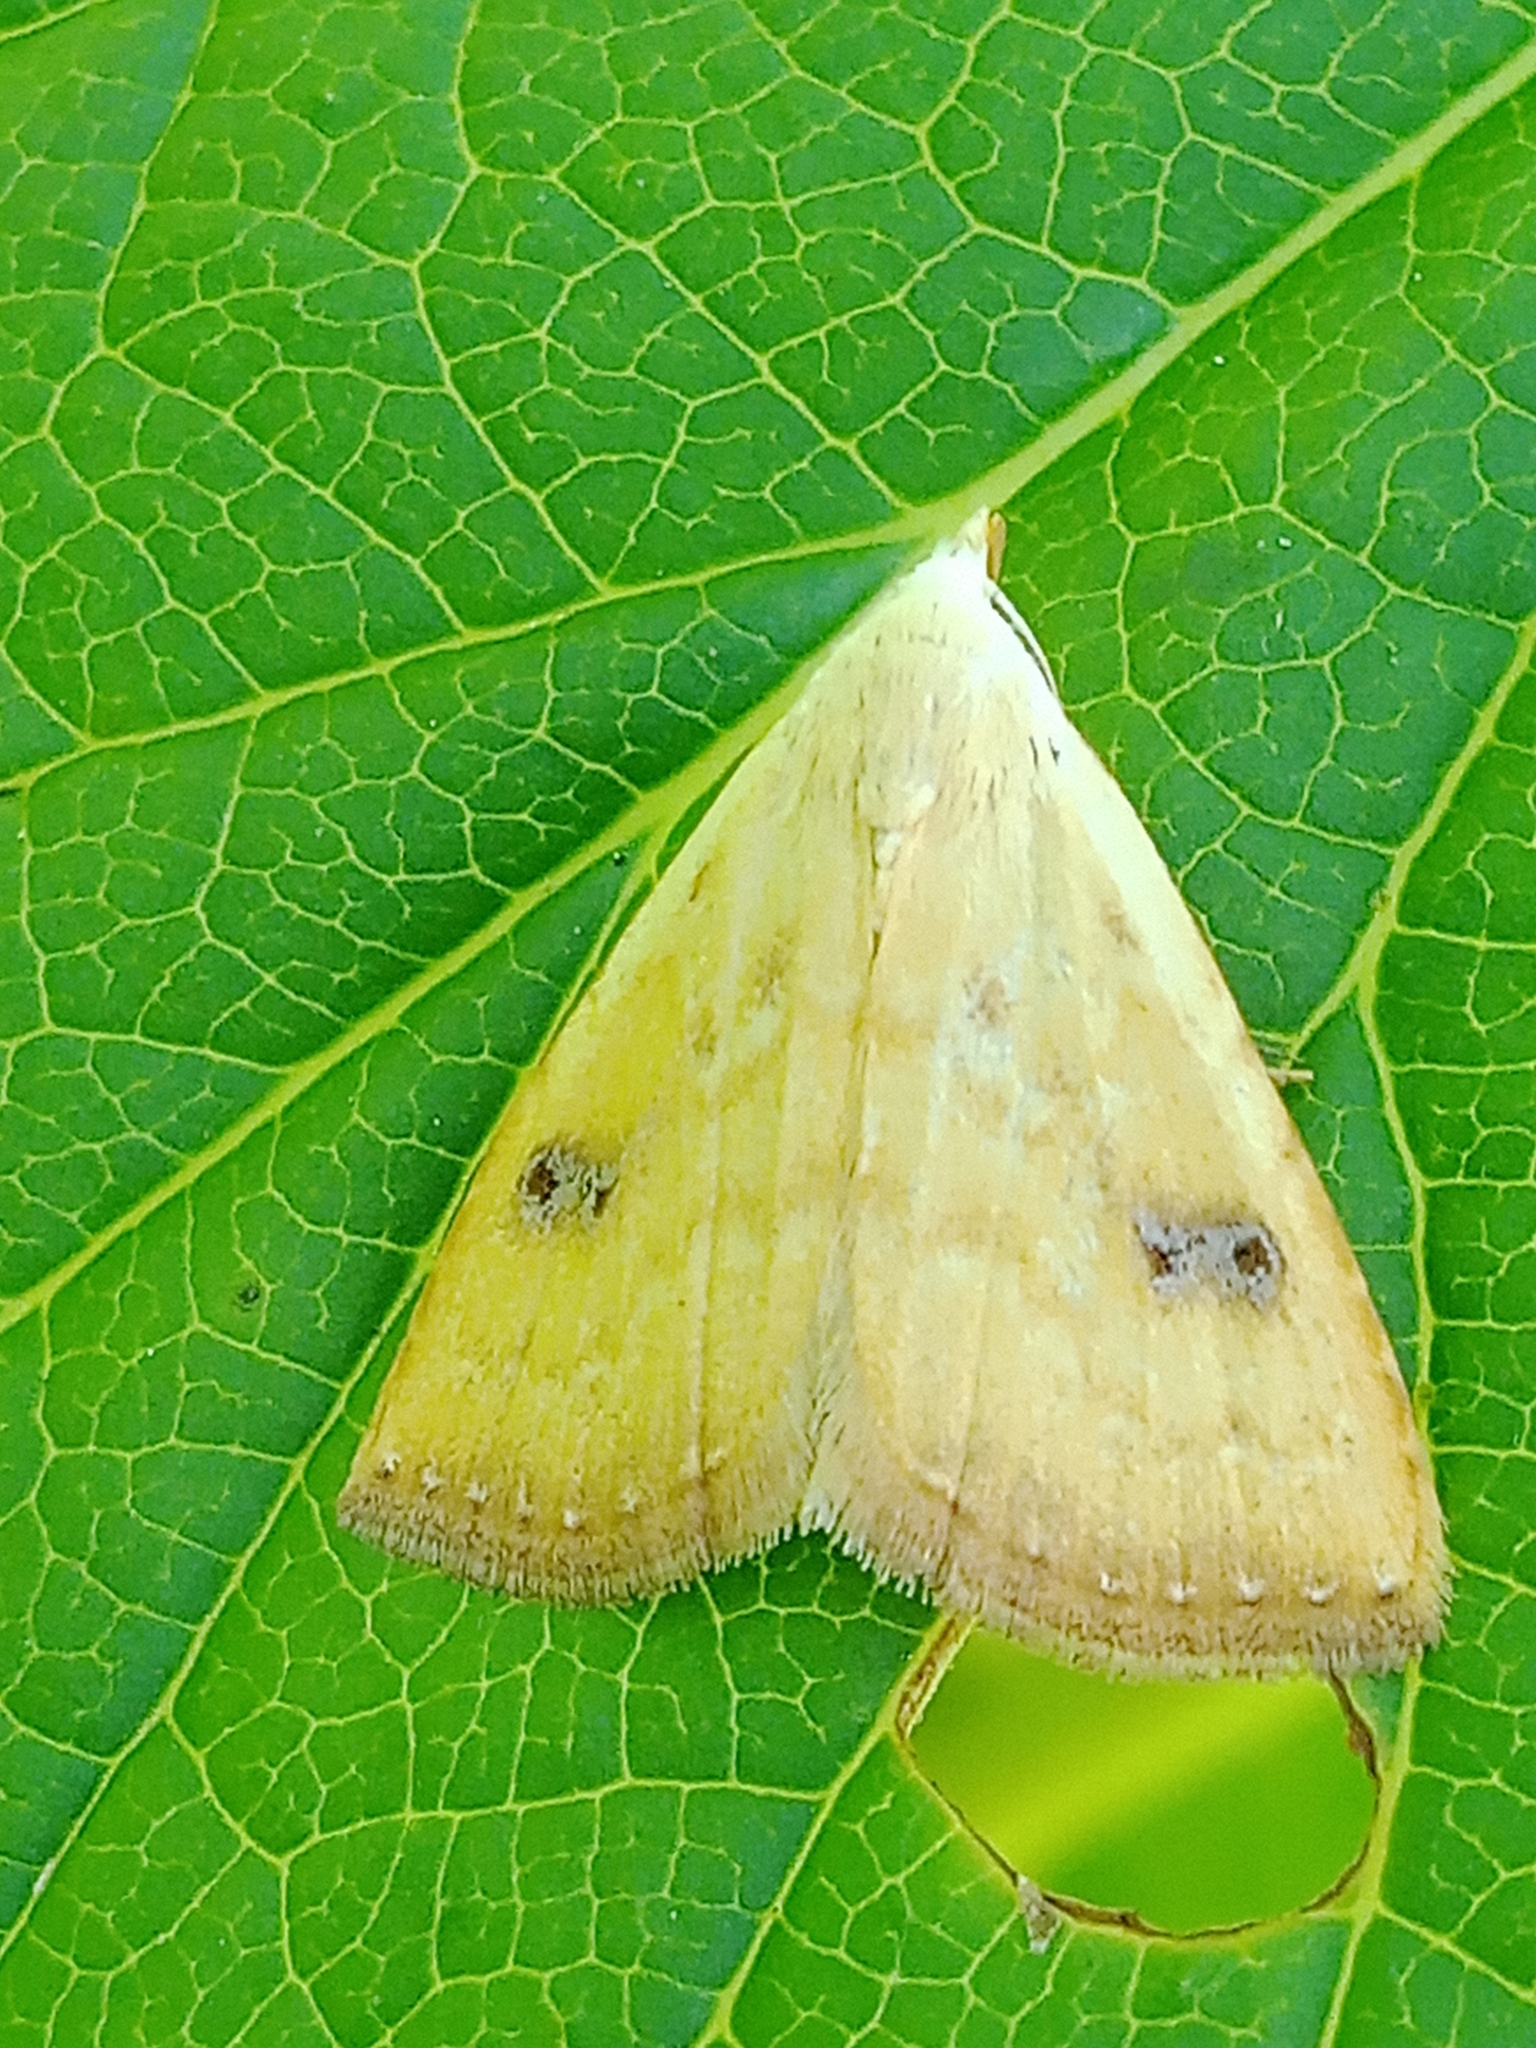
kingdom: Animalia
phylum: Arthropoda
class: Insecta
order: Lepidoptera
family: Erebidae
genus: Rivula
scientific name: Rivula sericealis
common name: Straw dot
